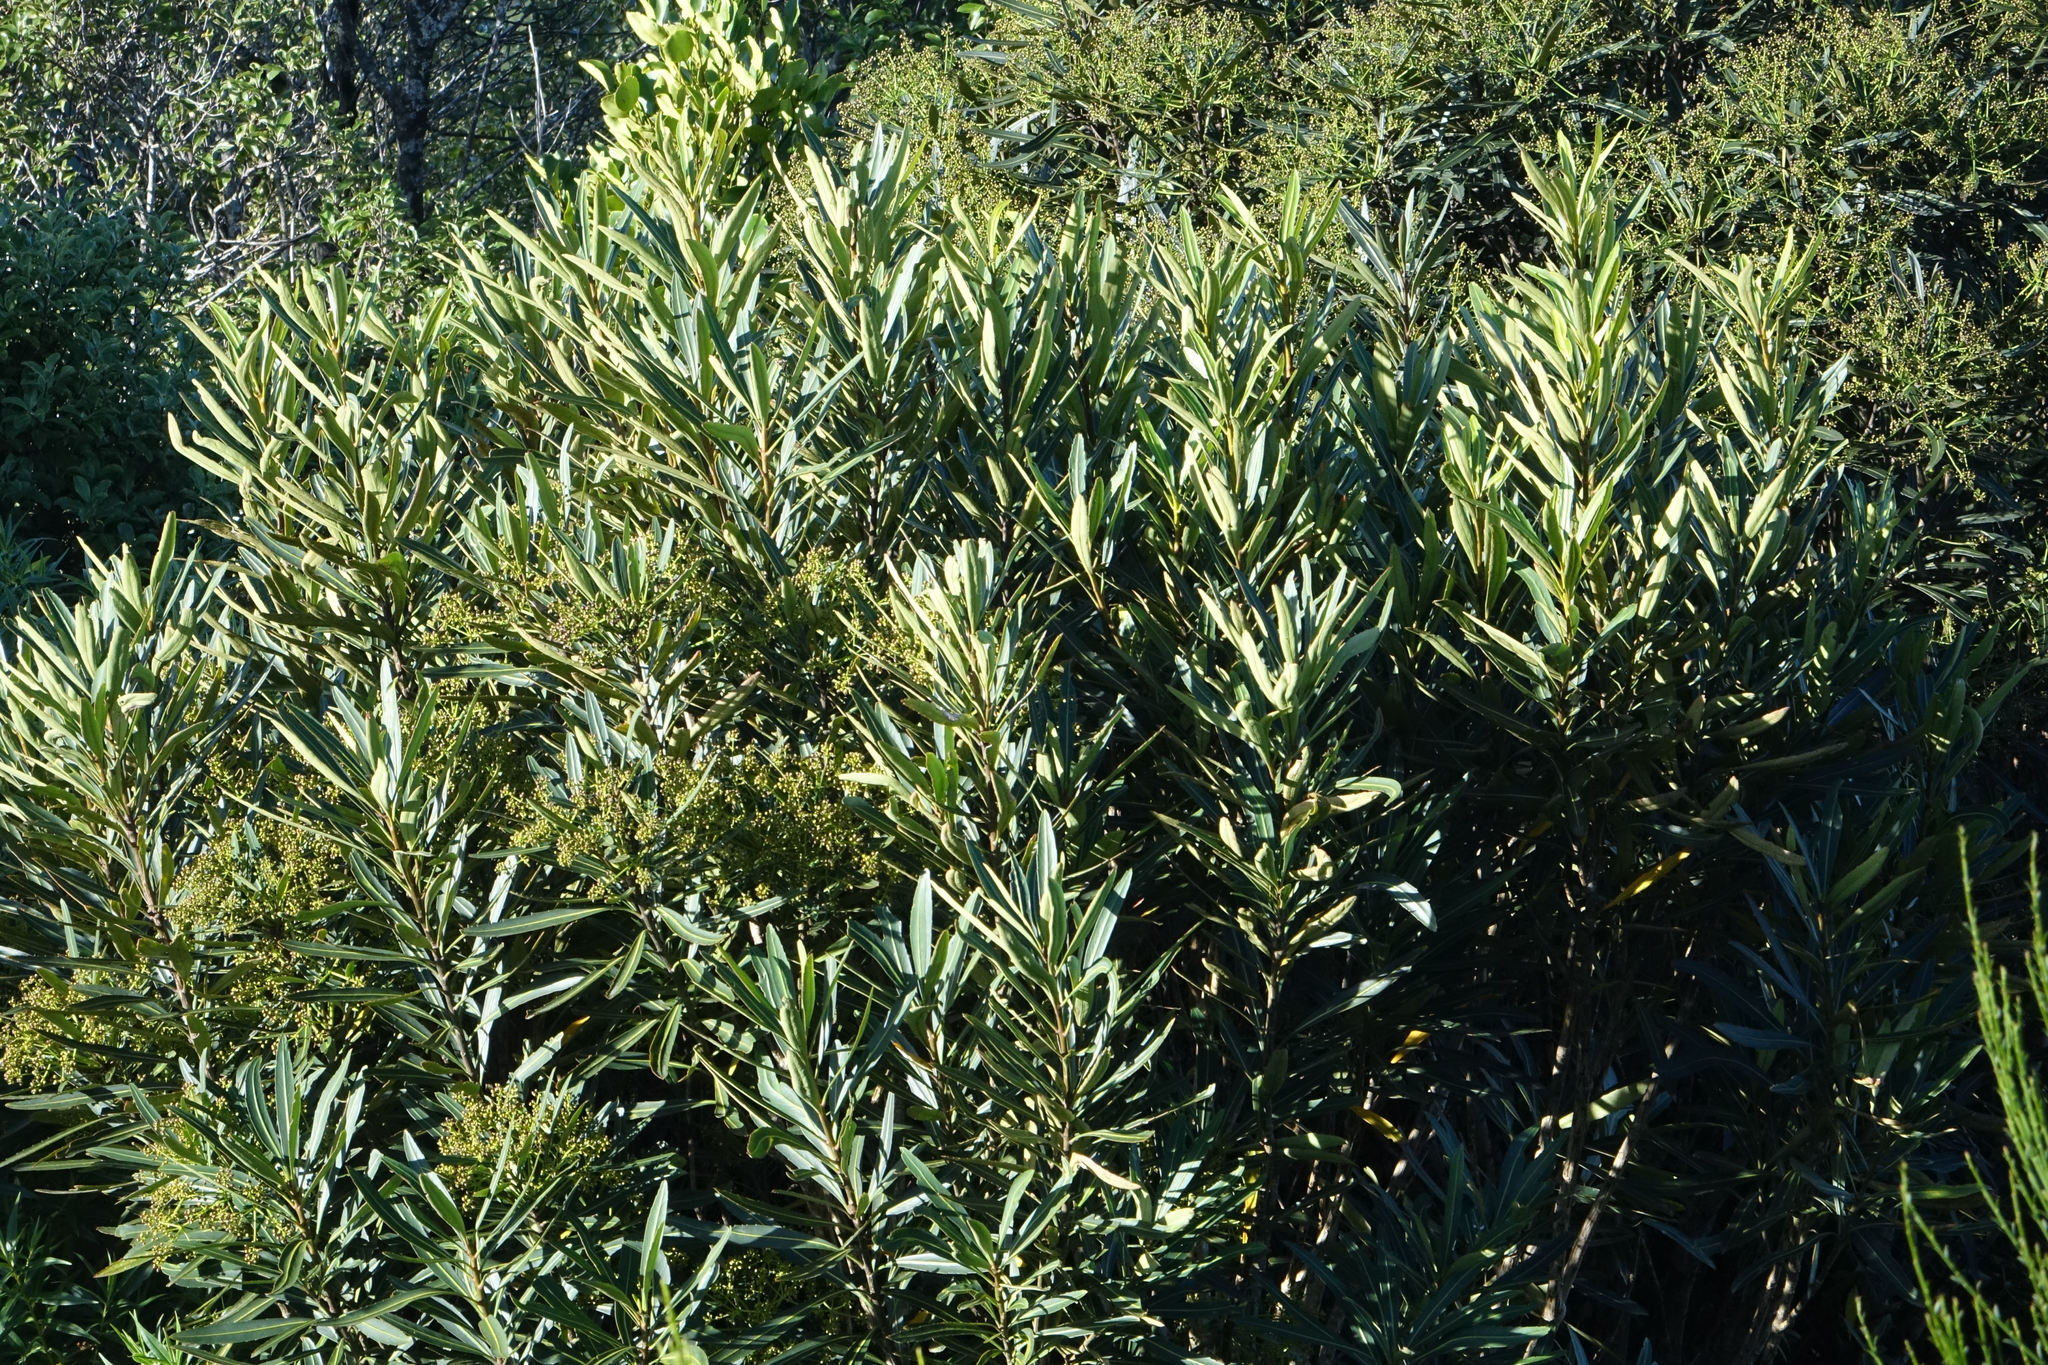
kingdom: Plantae
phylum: Tracheophyta
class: Magnoliopsida
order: Apiales
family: Araliaceae
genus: Pseudopanax
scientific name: Pseudopanax crassifolius
